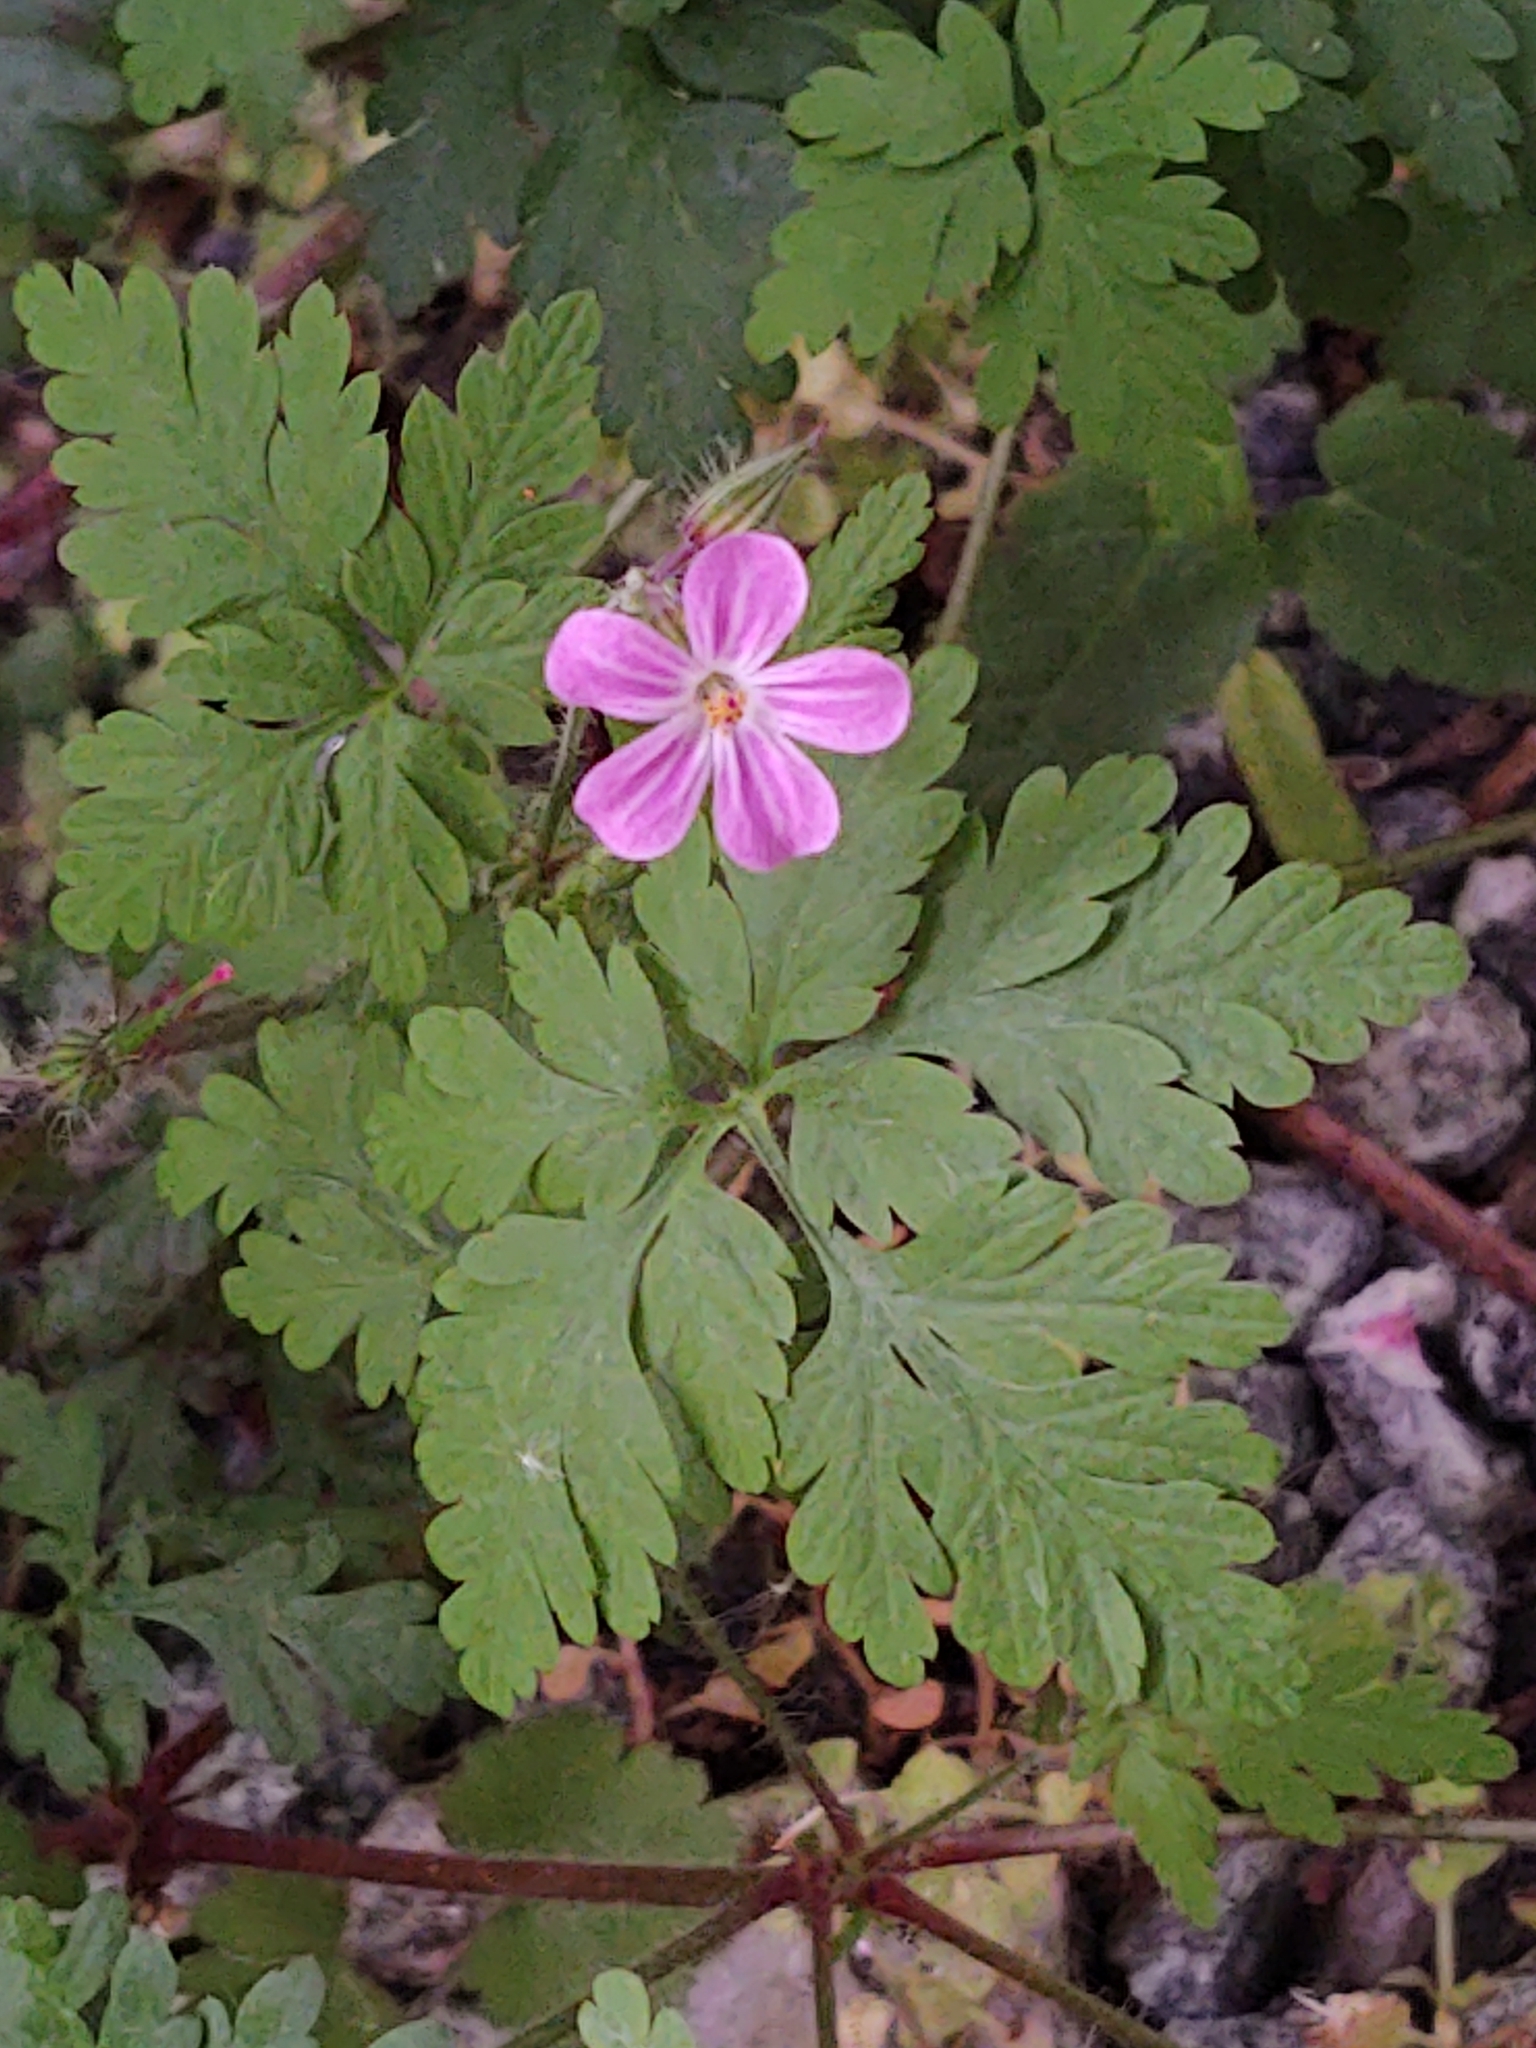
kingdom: Plantae
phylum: Tracheophyta
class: Magnoliopsida
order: Geraniales
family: Geraniaceae
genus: Geranium
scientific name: Geranium robertianum
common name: Herb-robert
